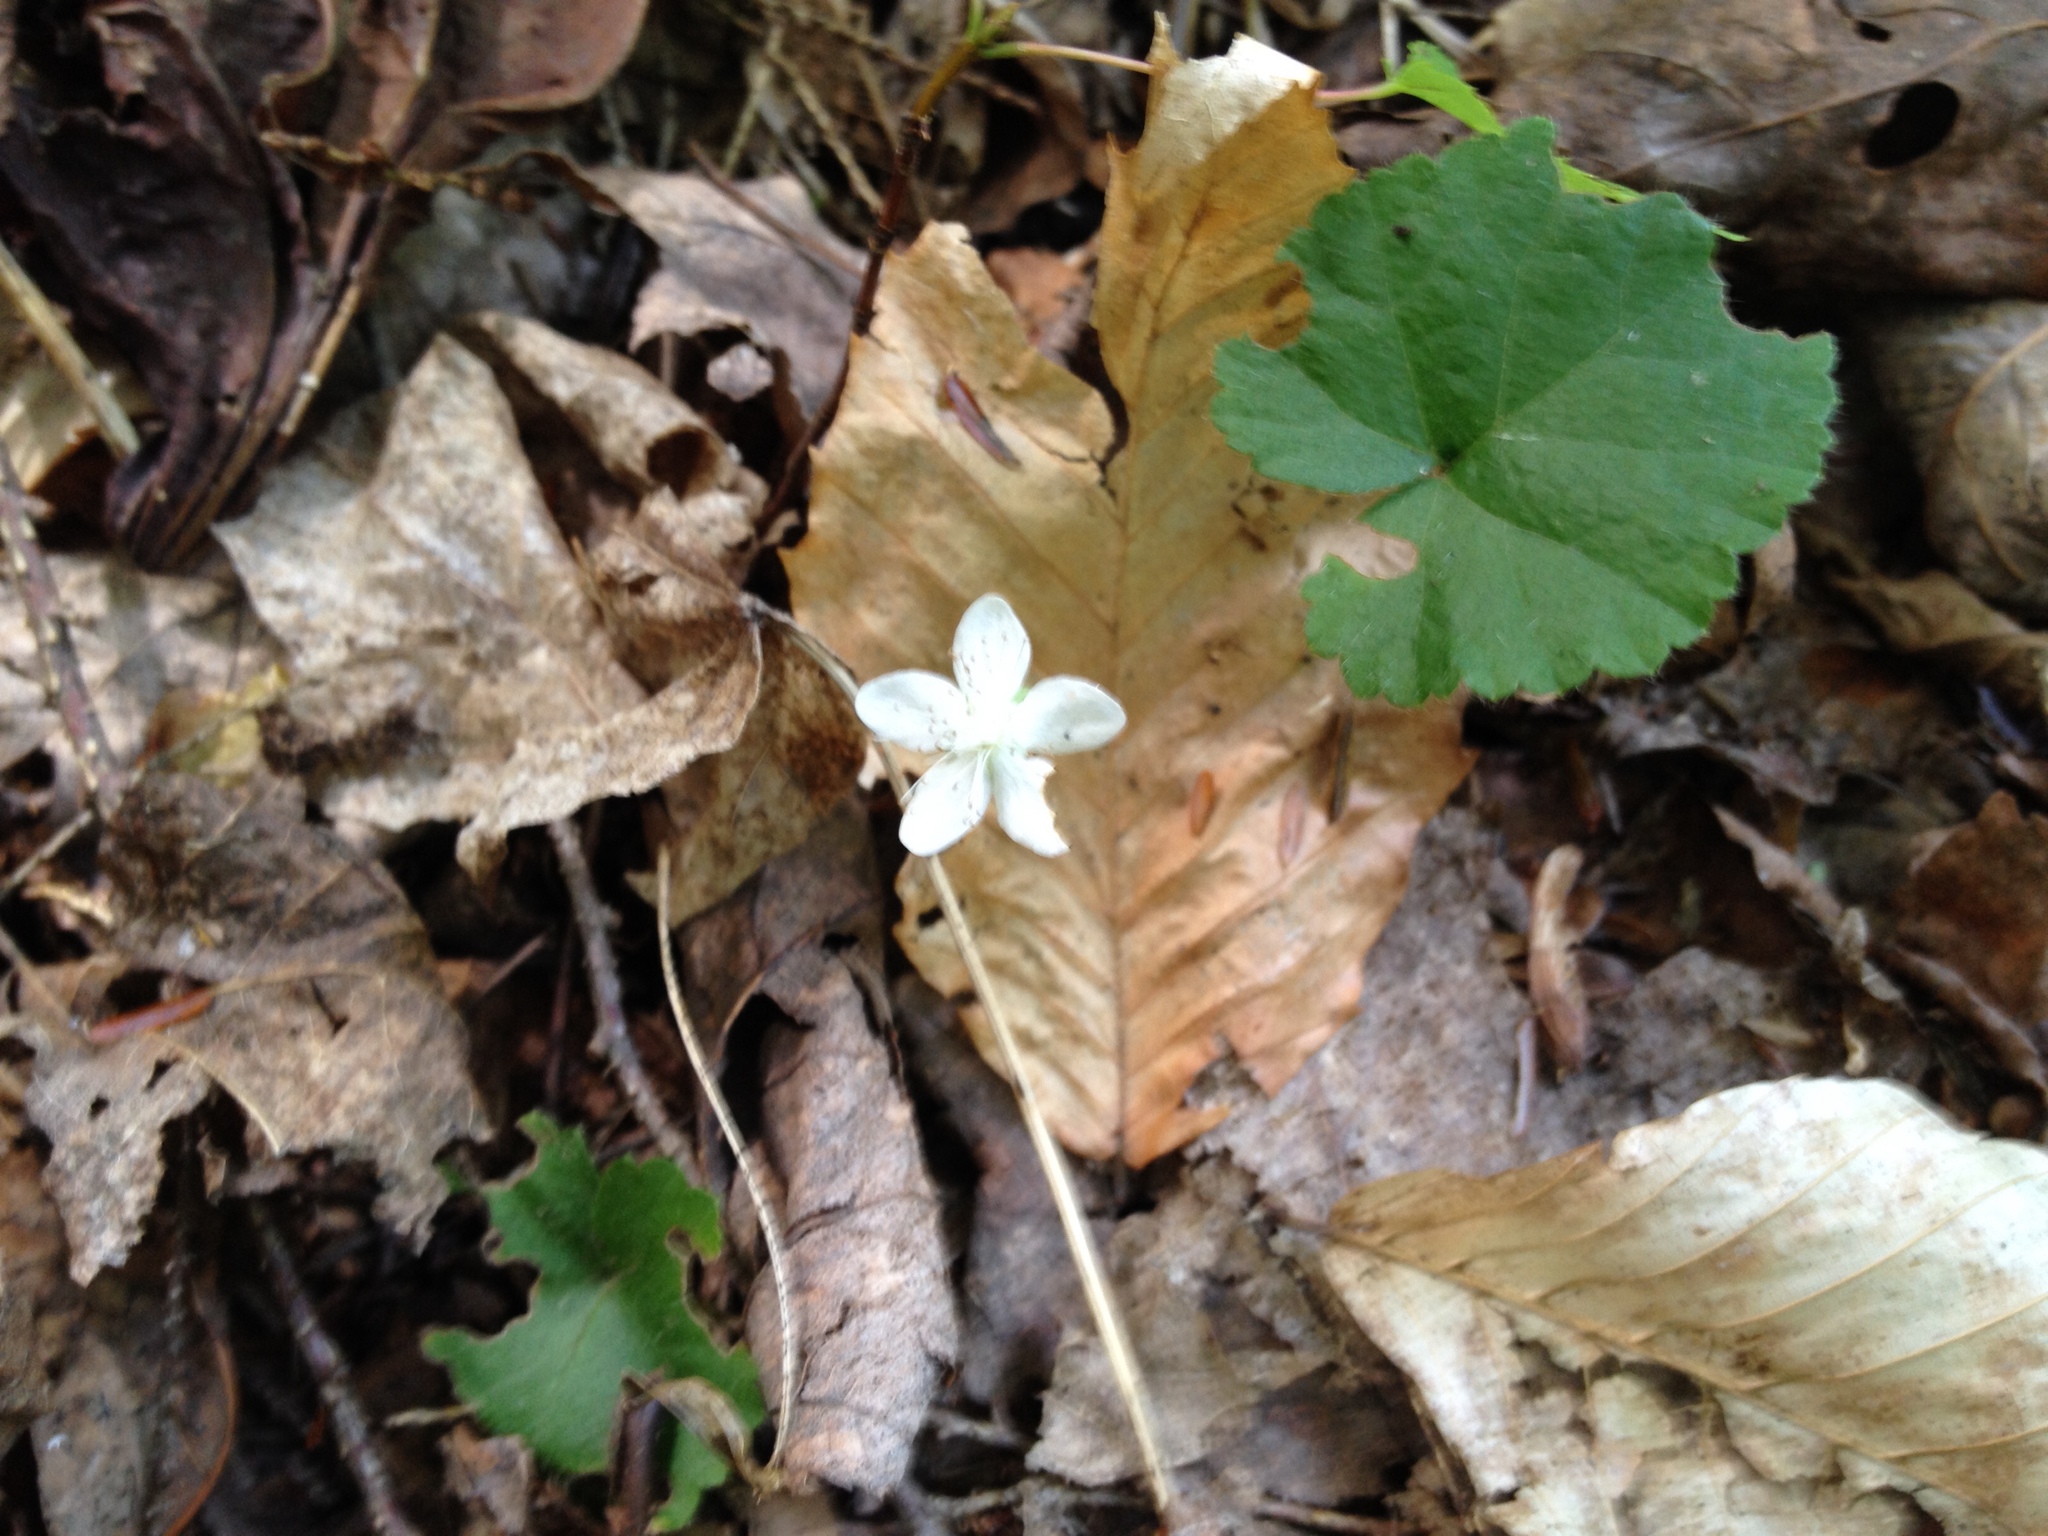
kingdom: Plantae
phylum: Tracheophyta
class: Magnoliopsida
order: Rosales
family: Rosaceae
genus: Dalibarda
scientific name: Dalibarda repens
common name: Dewdrop
